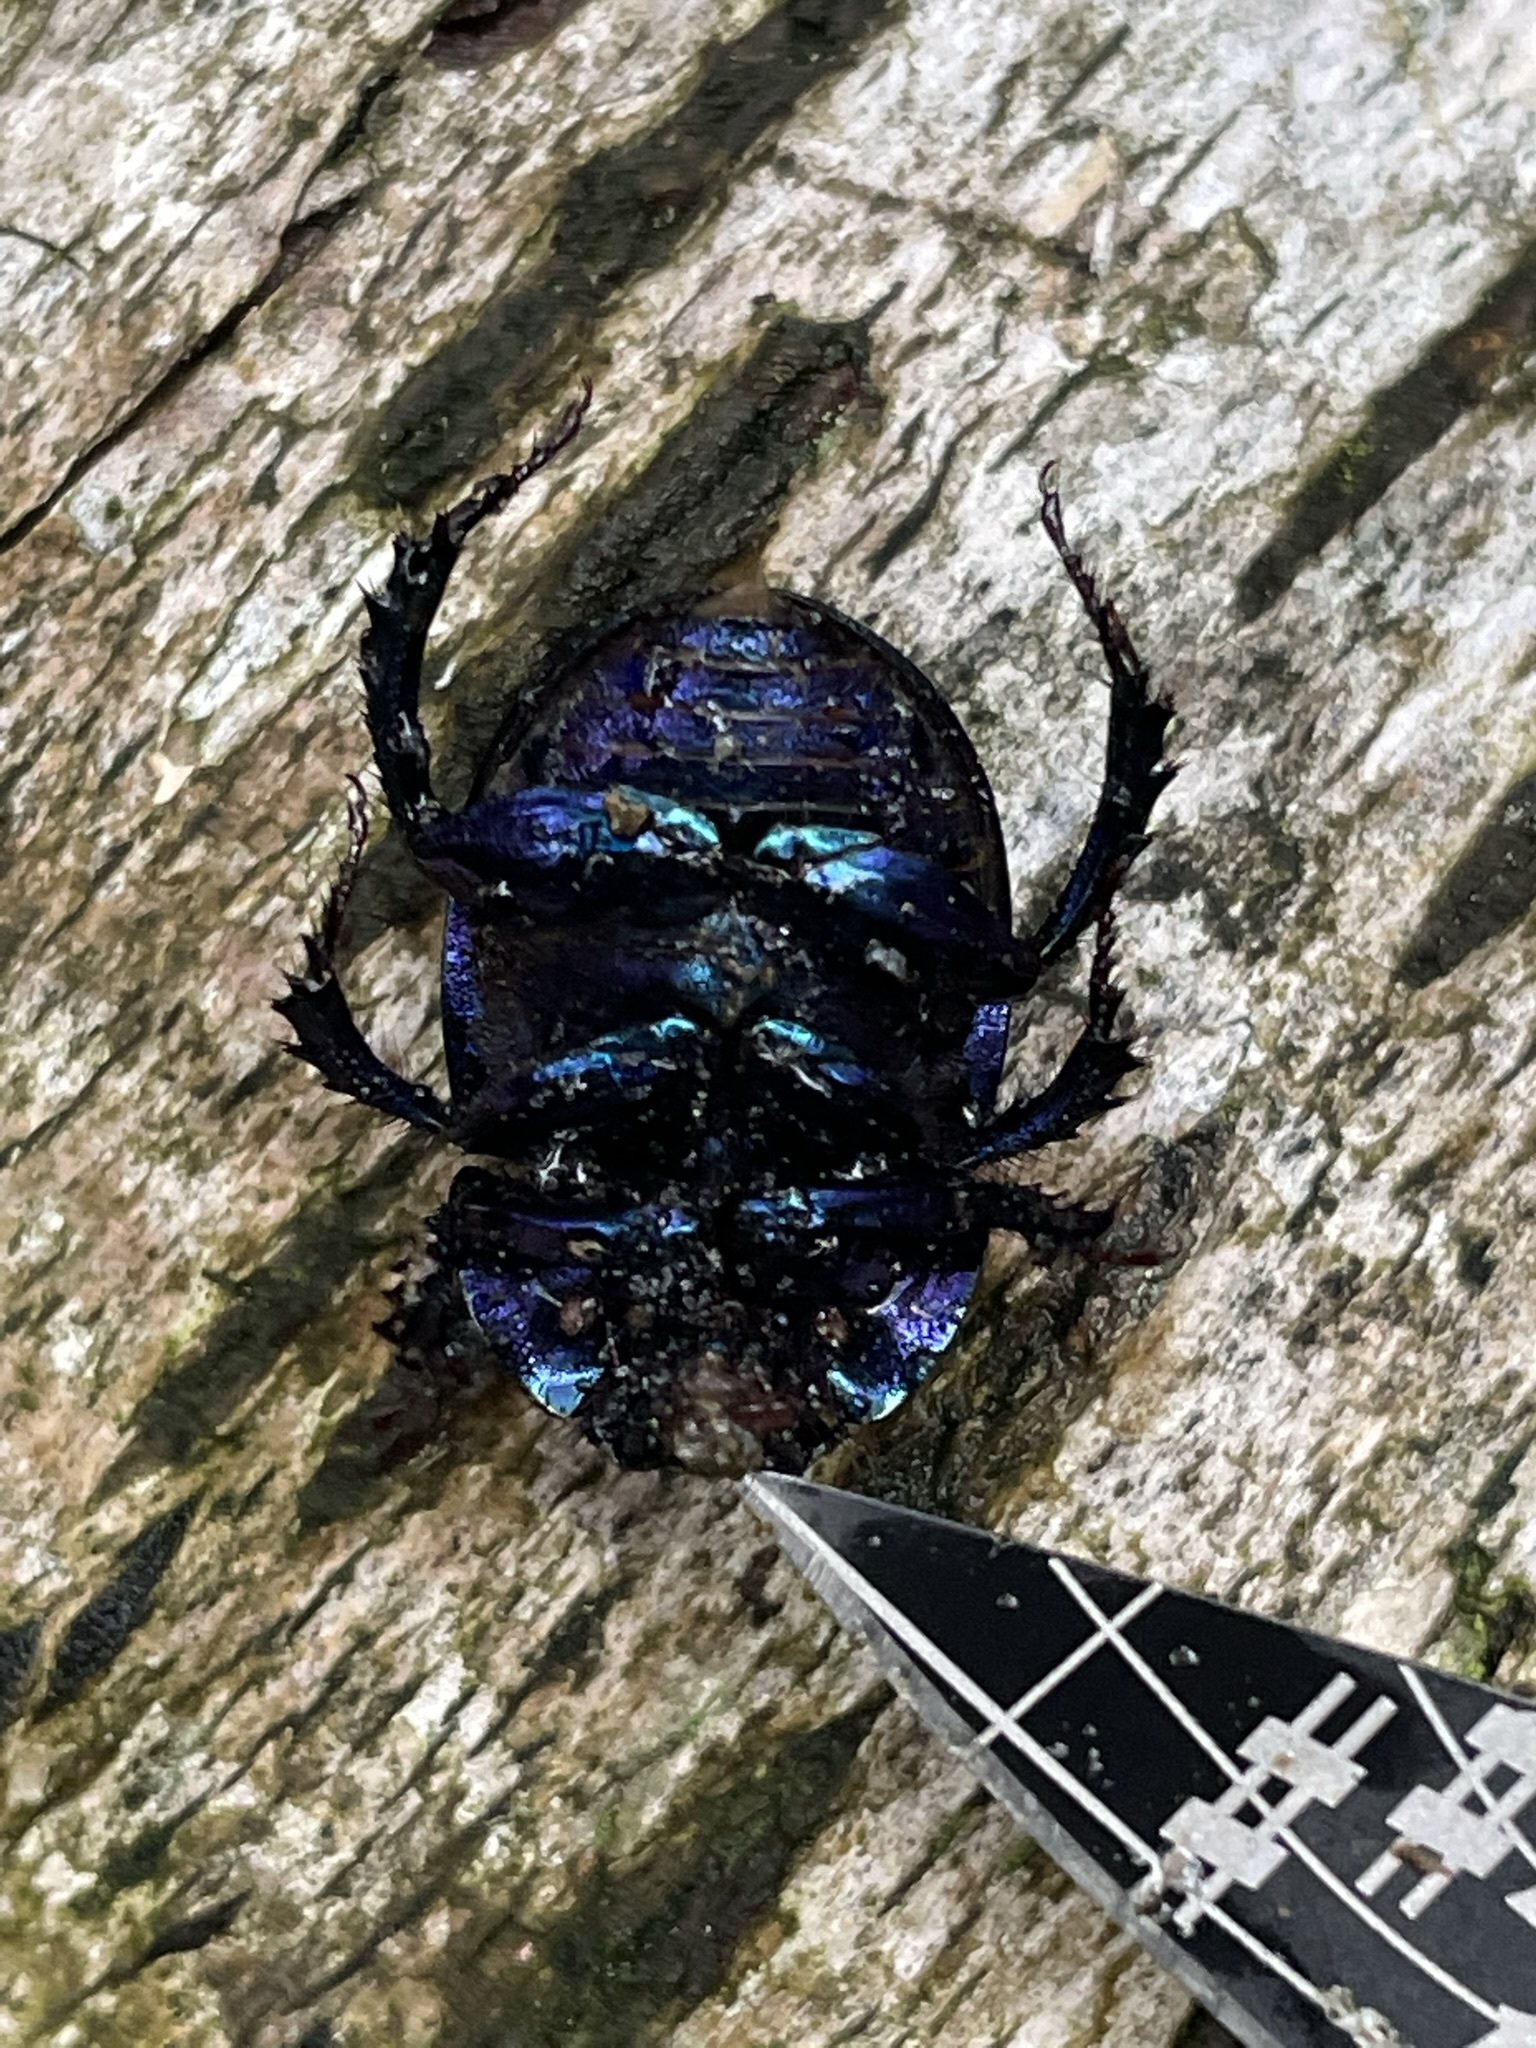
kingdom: Animalia
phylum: Arthropoda
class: Insecta
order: Coleoptera
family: Geotrupidae
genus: Anoplotrupes
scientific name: Anoplotrupes stercorosus
